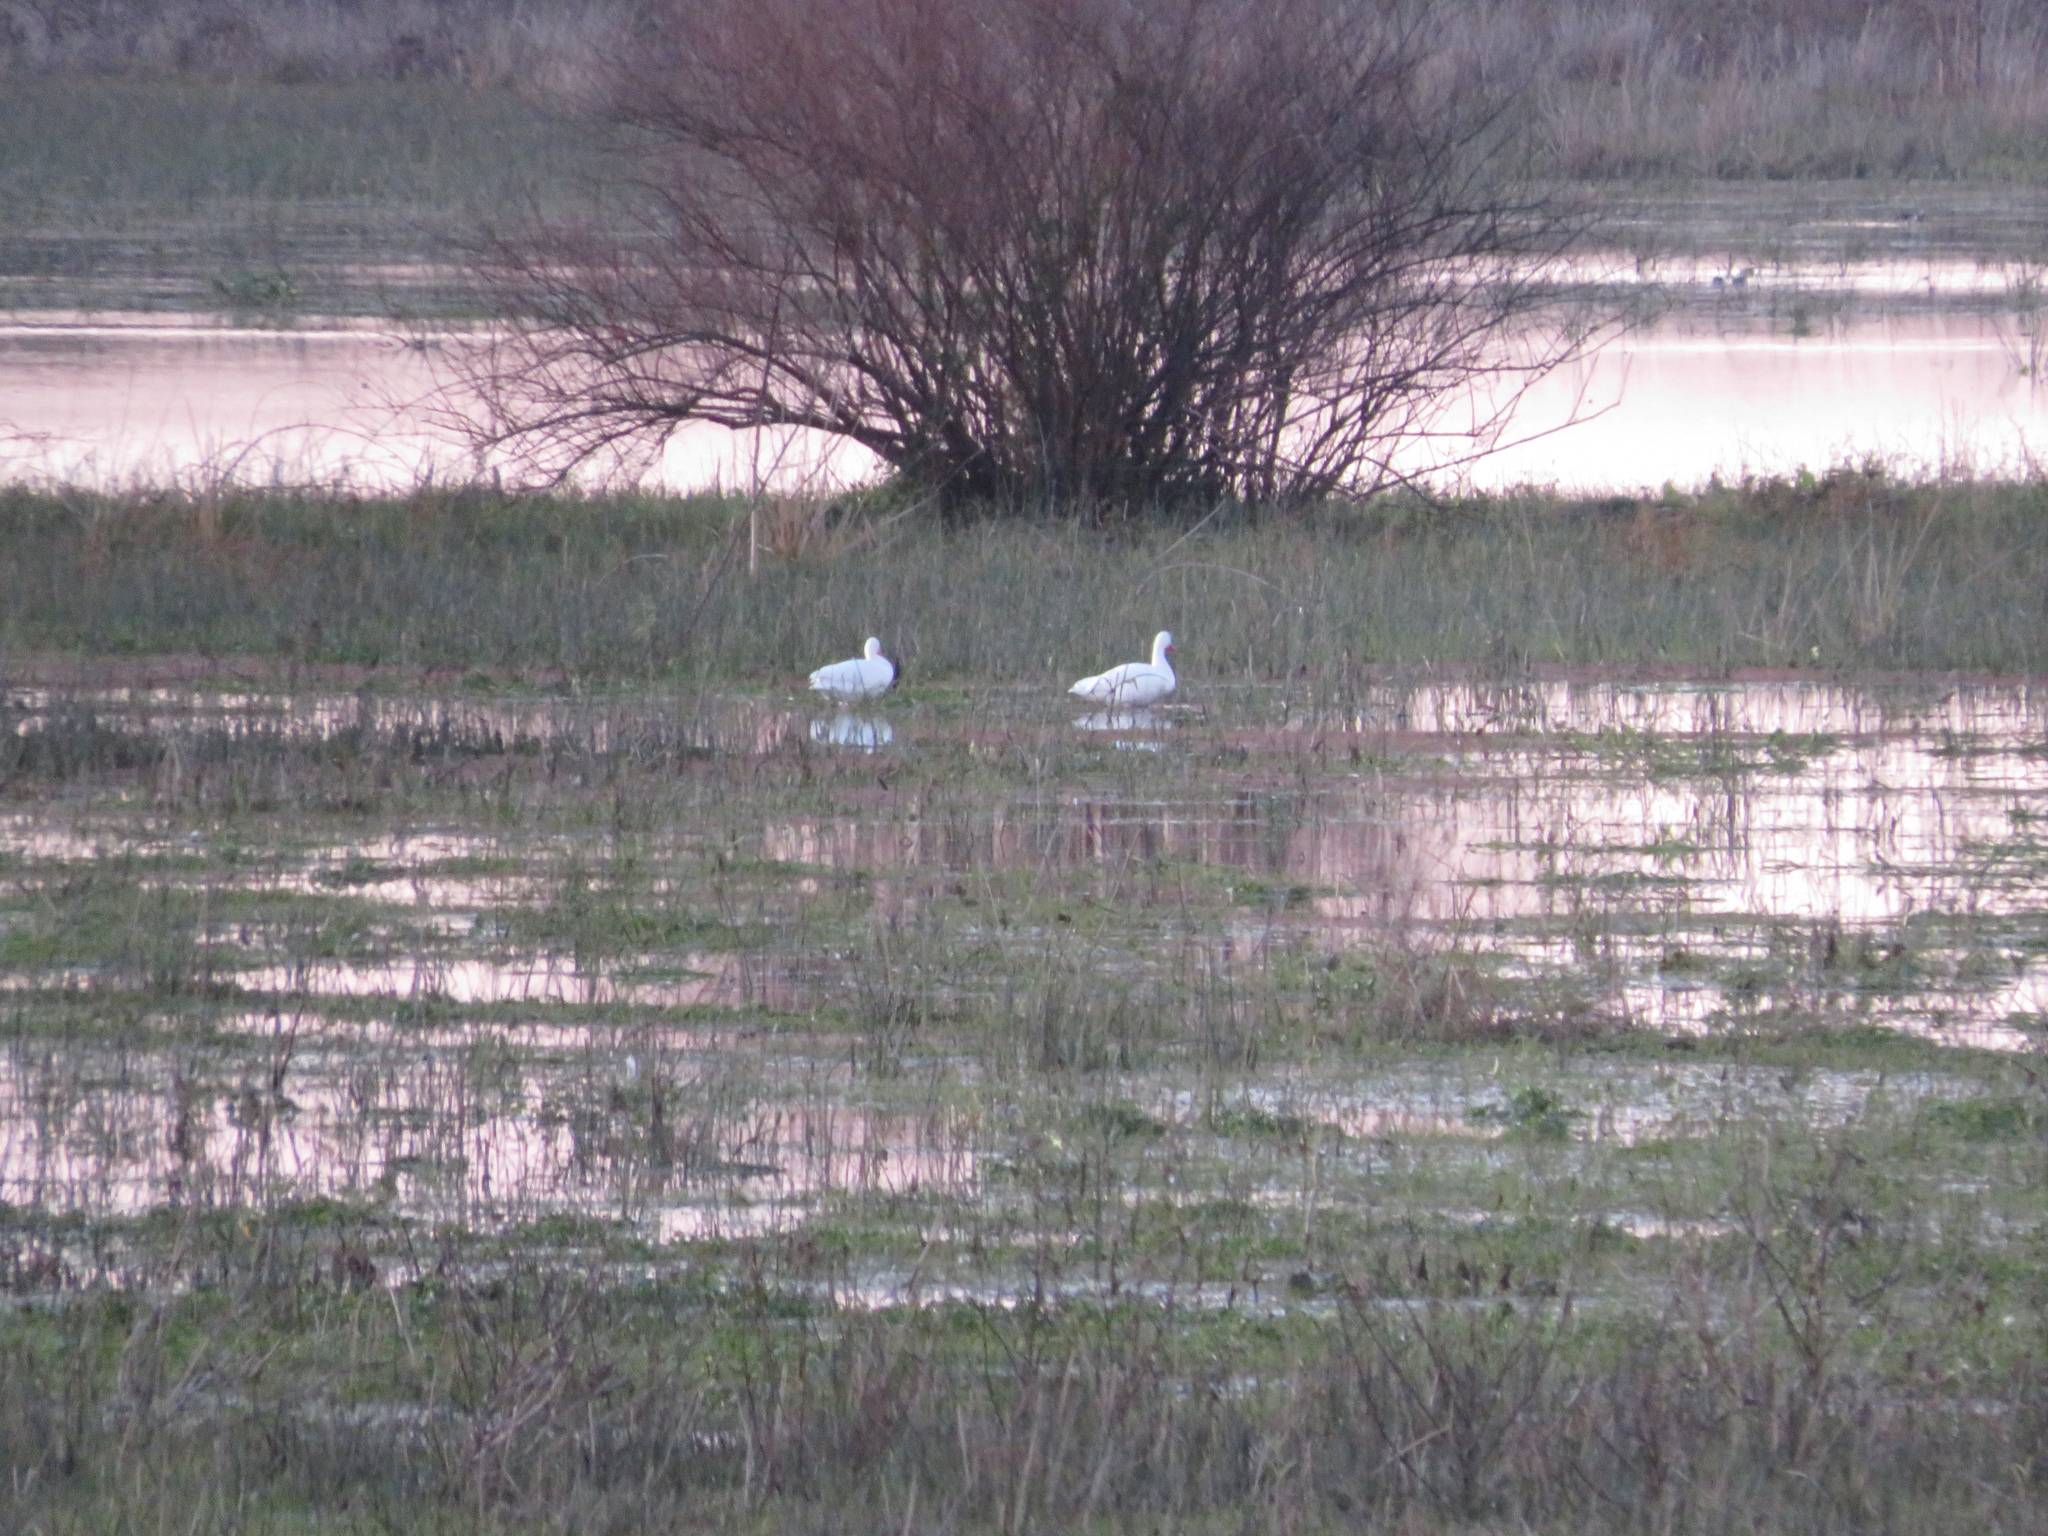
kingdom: Animalia
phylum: Chordata
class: Aves
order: Anseriformes
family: Anatidae
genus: Coscoroba
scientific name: Coscoroba coscoroba
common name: Coscoroba swan
